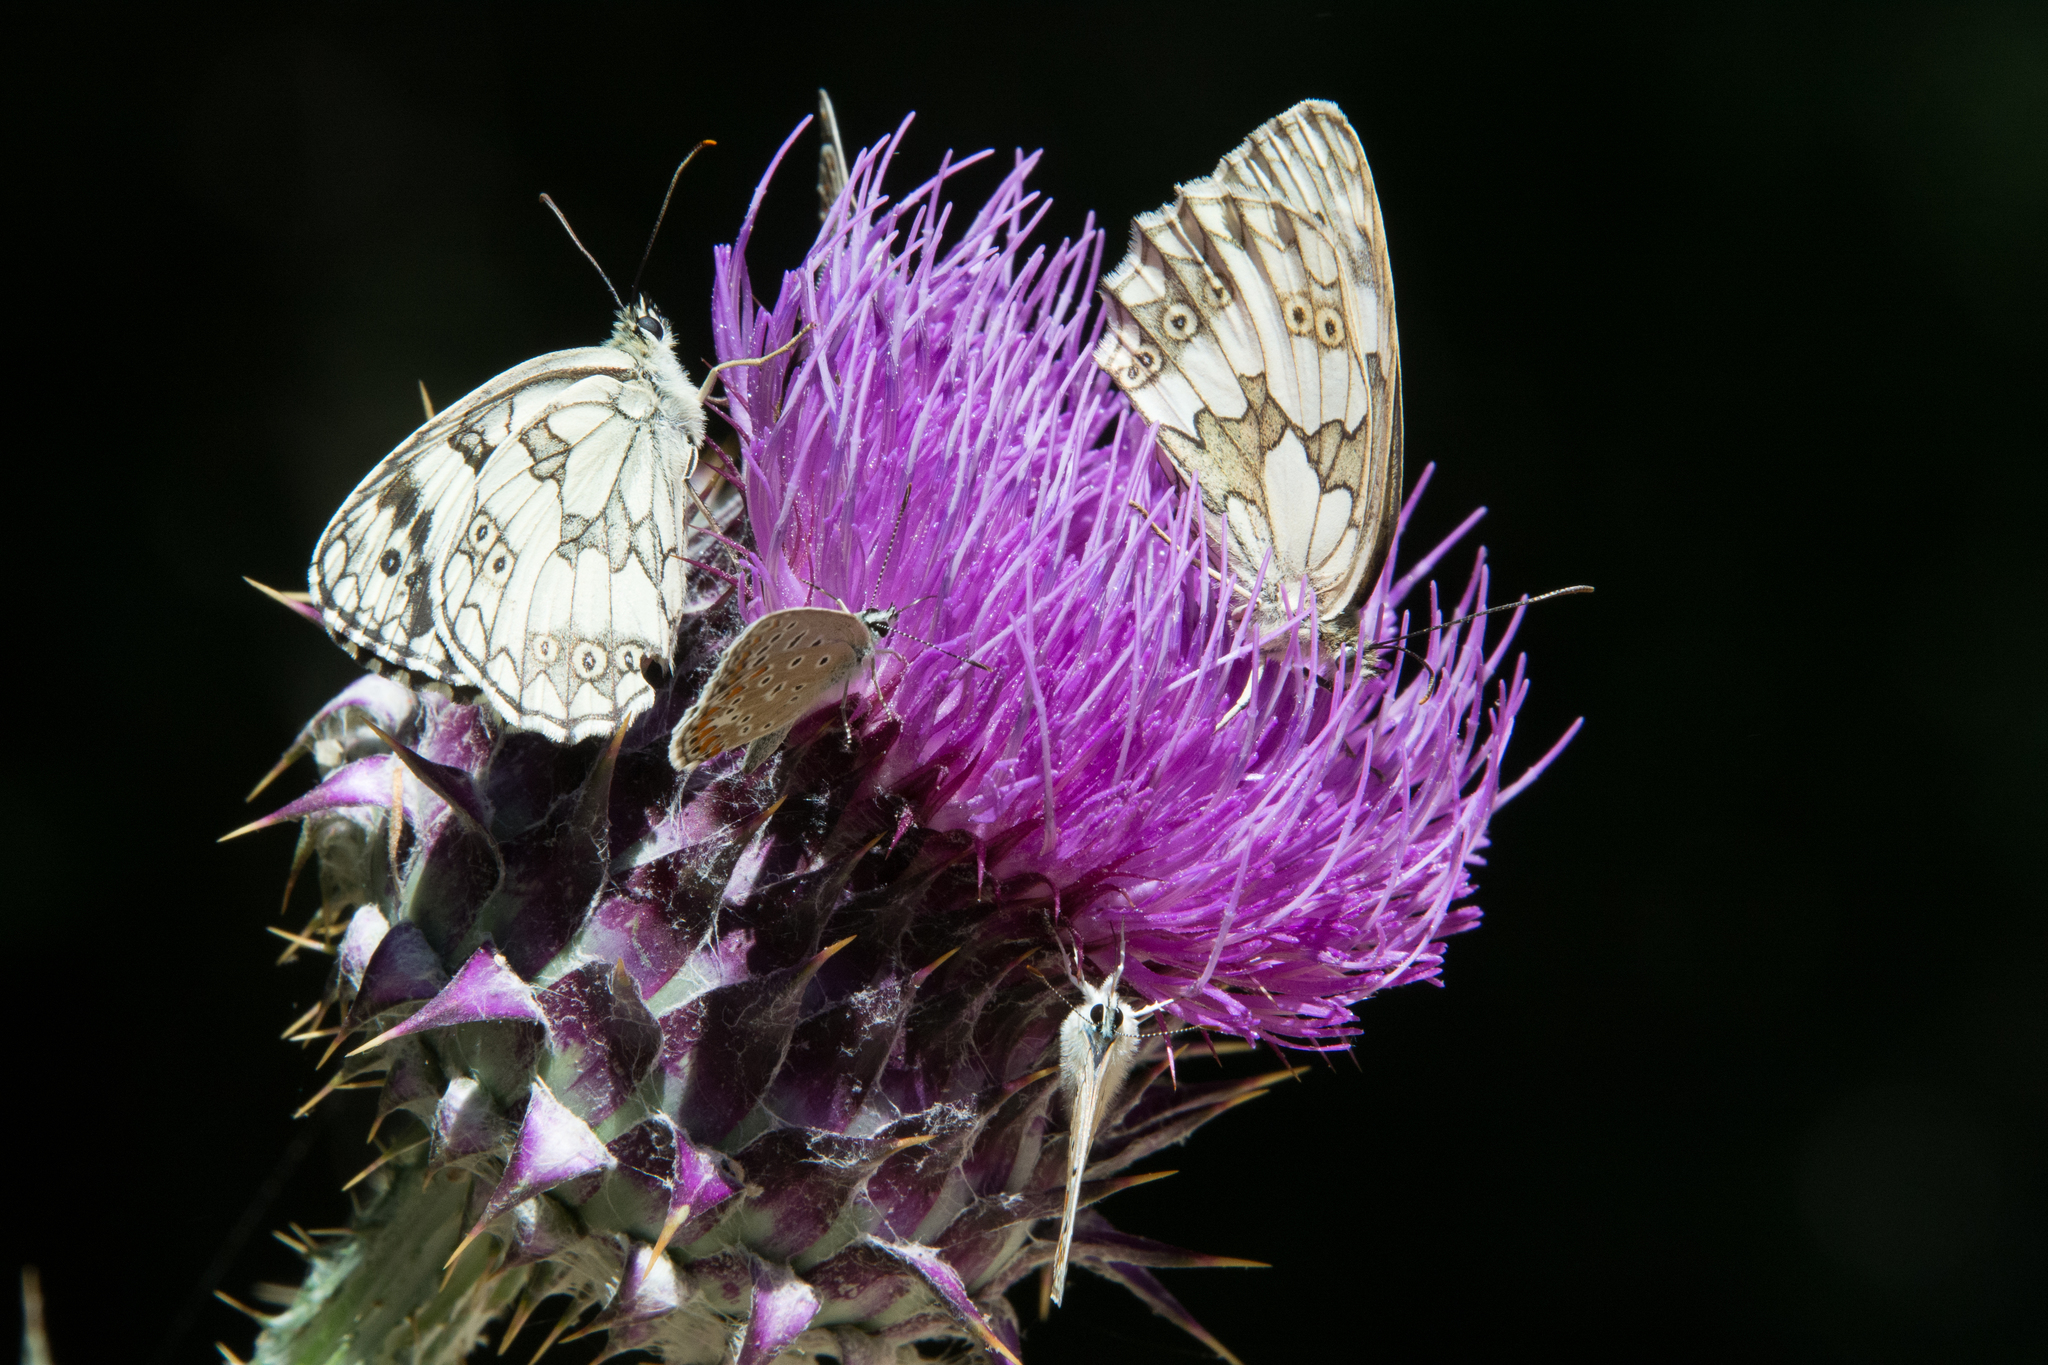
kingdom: Animalia
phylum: Arthropoda
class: Insecta
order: Lepidoptera
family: Nymphalidae
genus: Melanargia
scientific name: Melanargia galathea
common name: Marbled white
